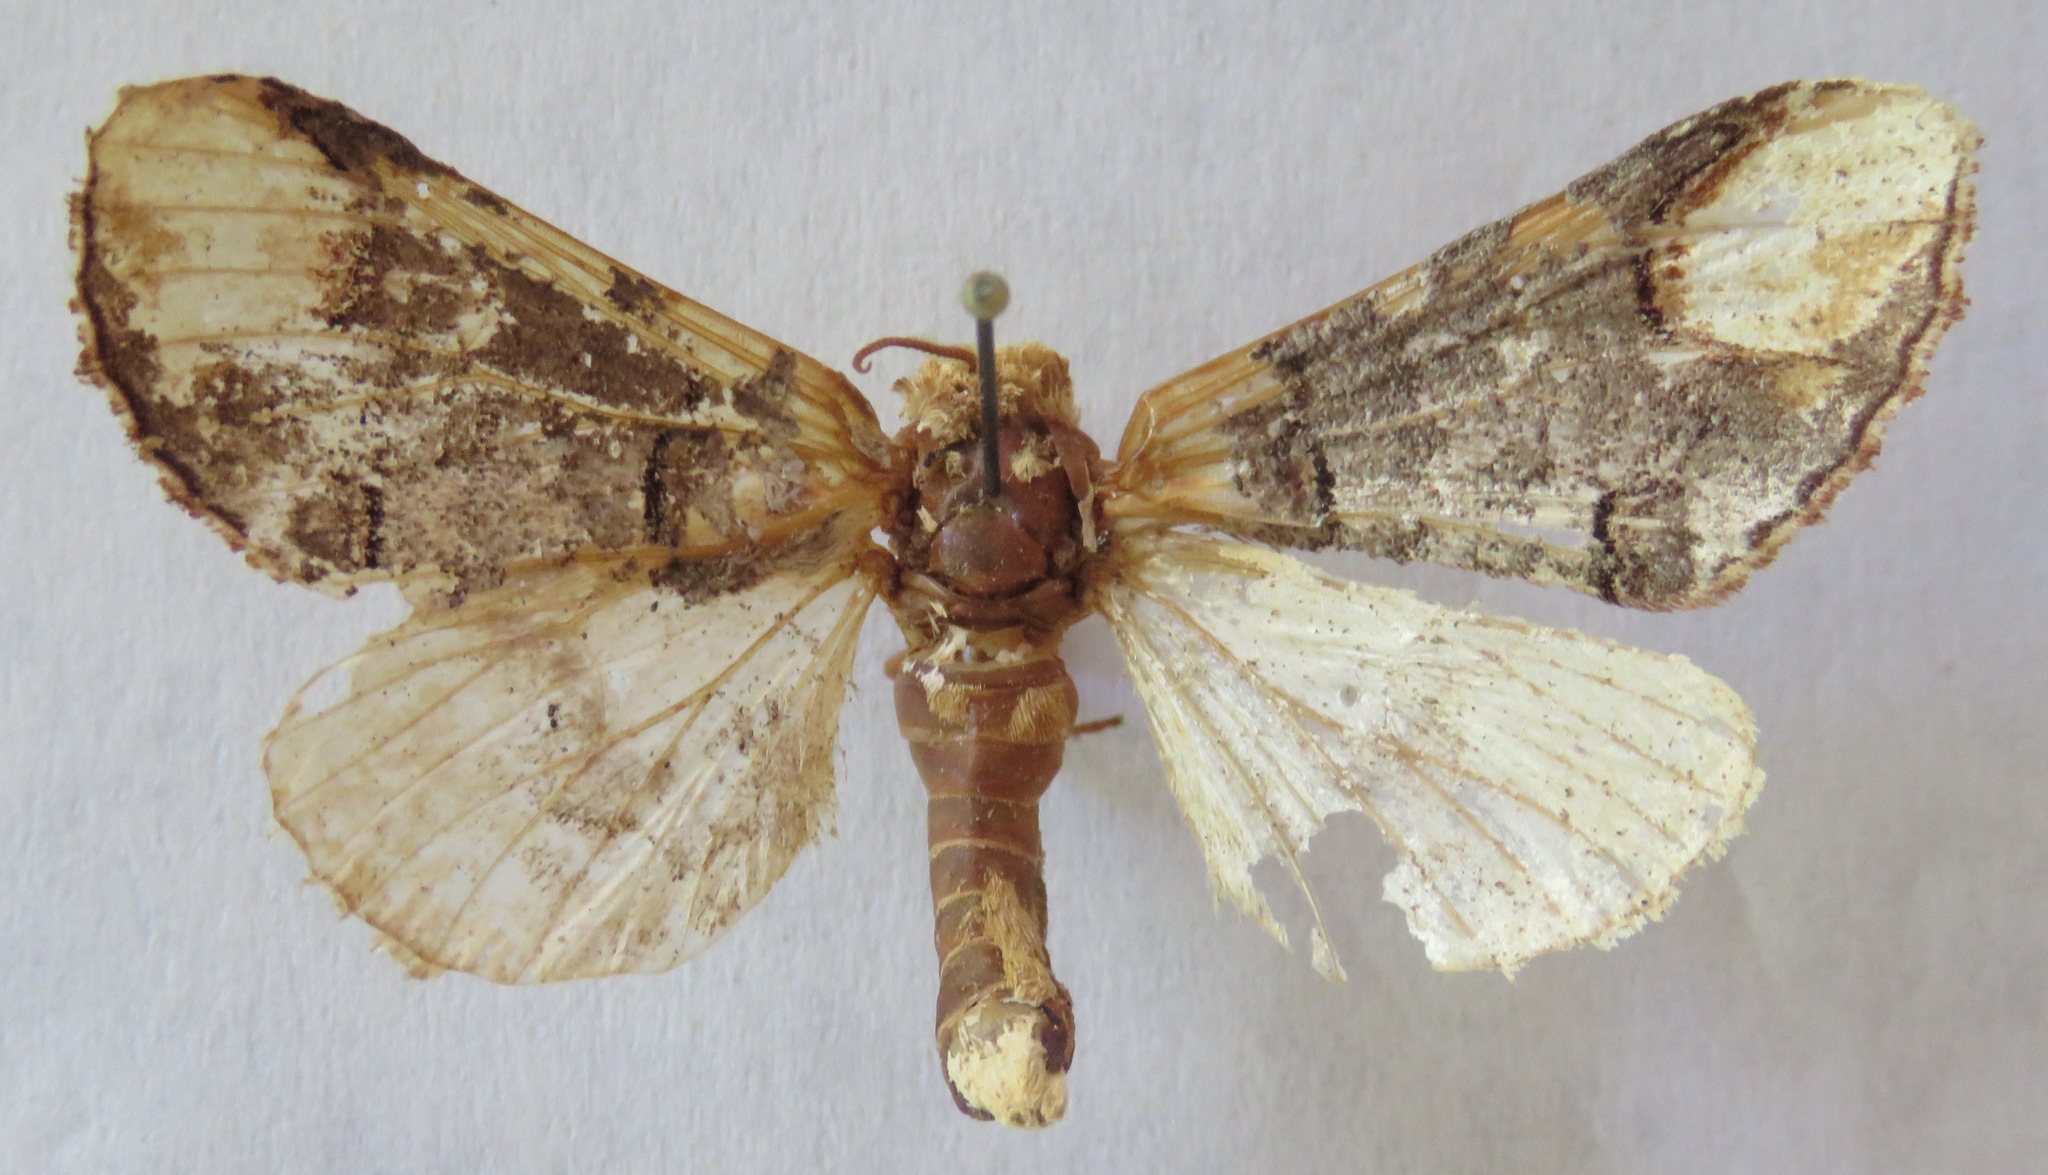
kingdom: Animalia
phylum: Arthropoda
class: Insecta
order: Lepidoptera
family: Notodontidae
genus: Phalera
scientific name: Phalera bucephala
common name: Buff-tip
